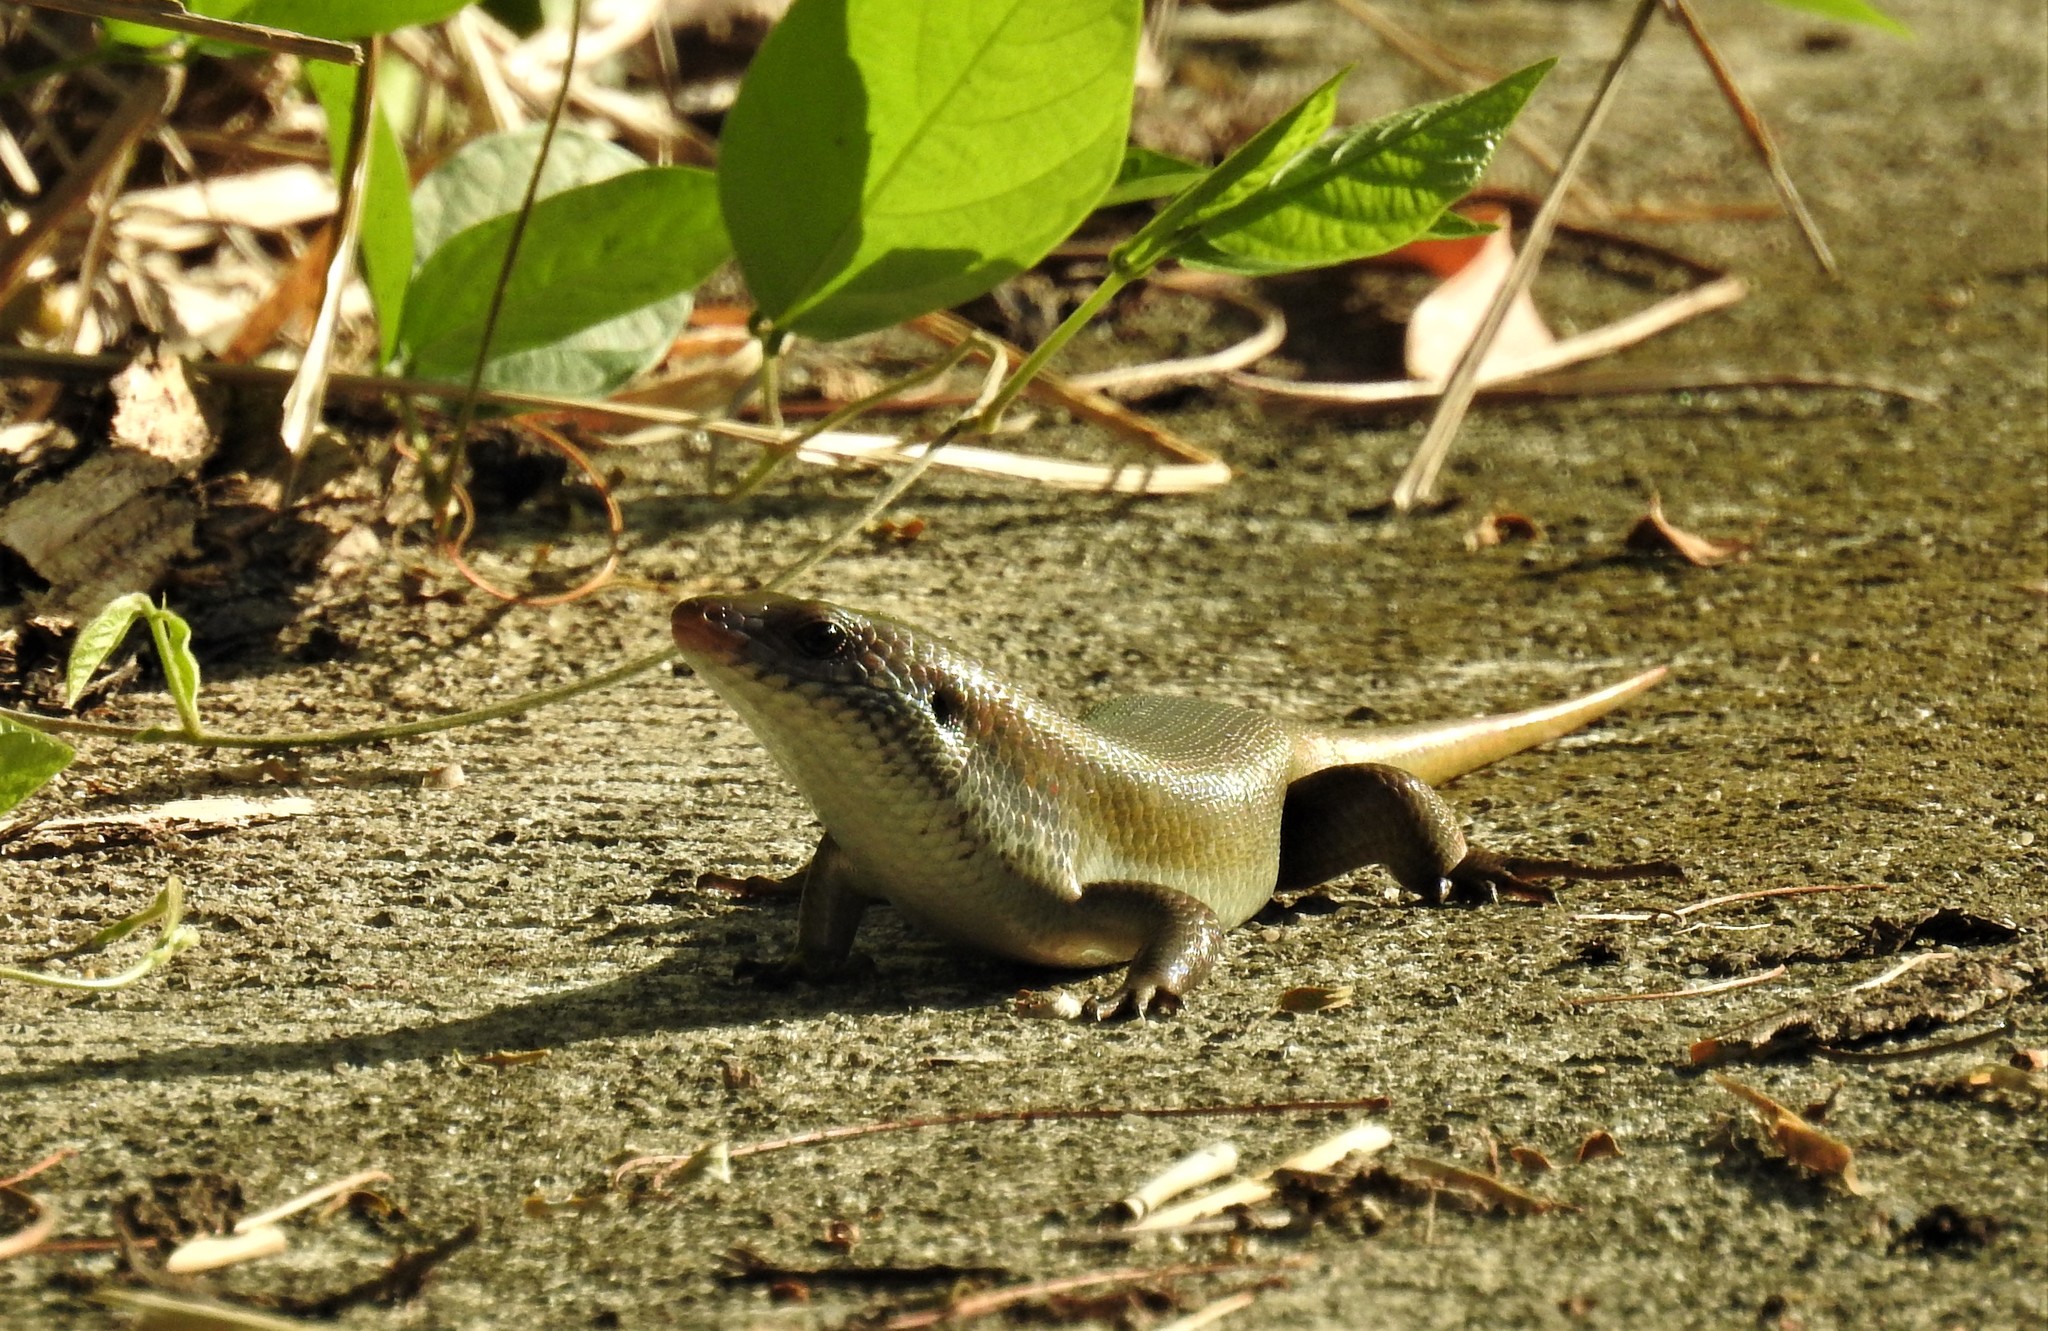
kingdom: Animalia
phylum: Chordata
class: Squamata
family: Scincidae
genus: Eutropis
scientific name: Eutropis multifasciata
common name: Common mabuya
